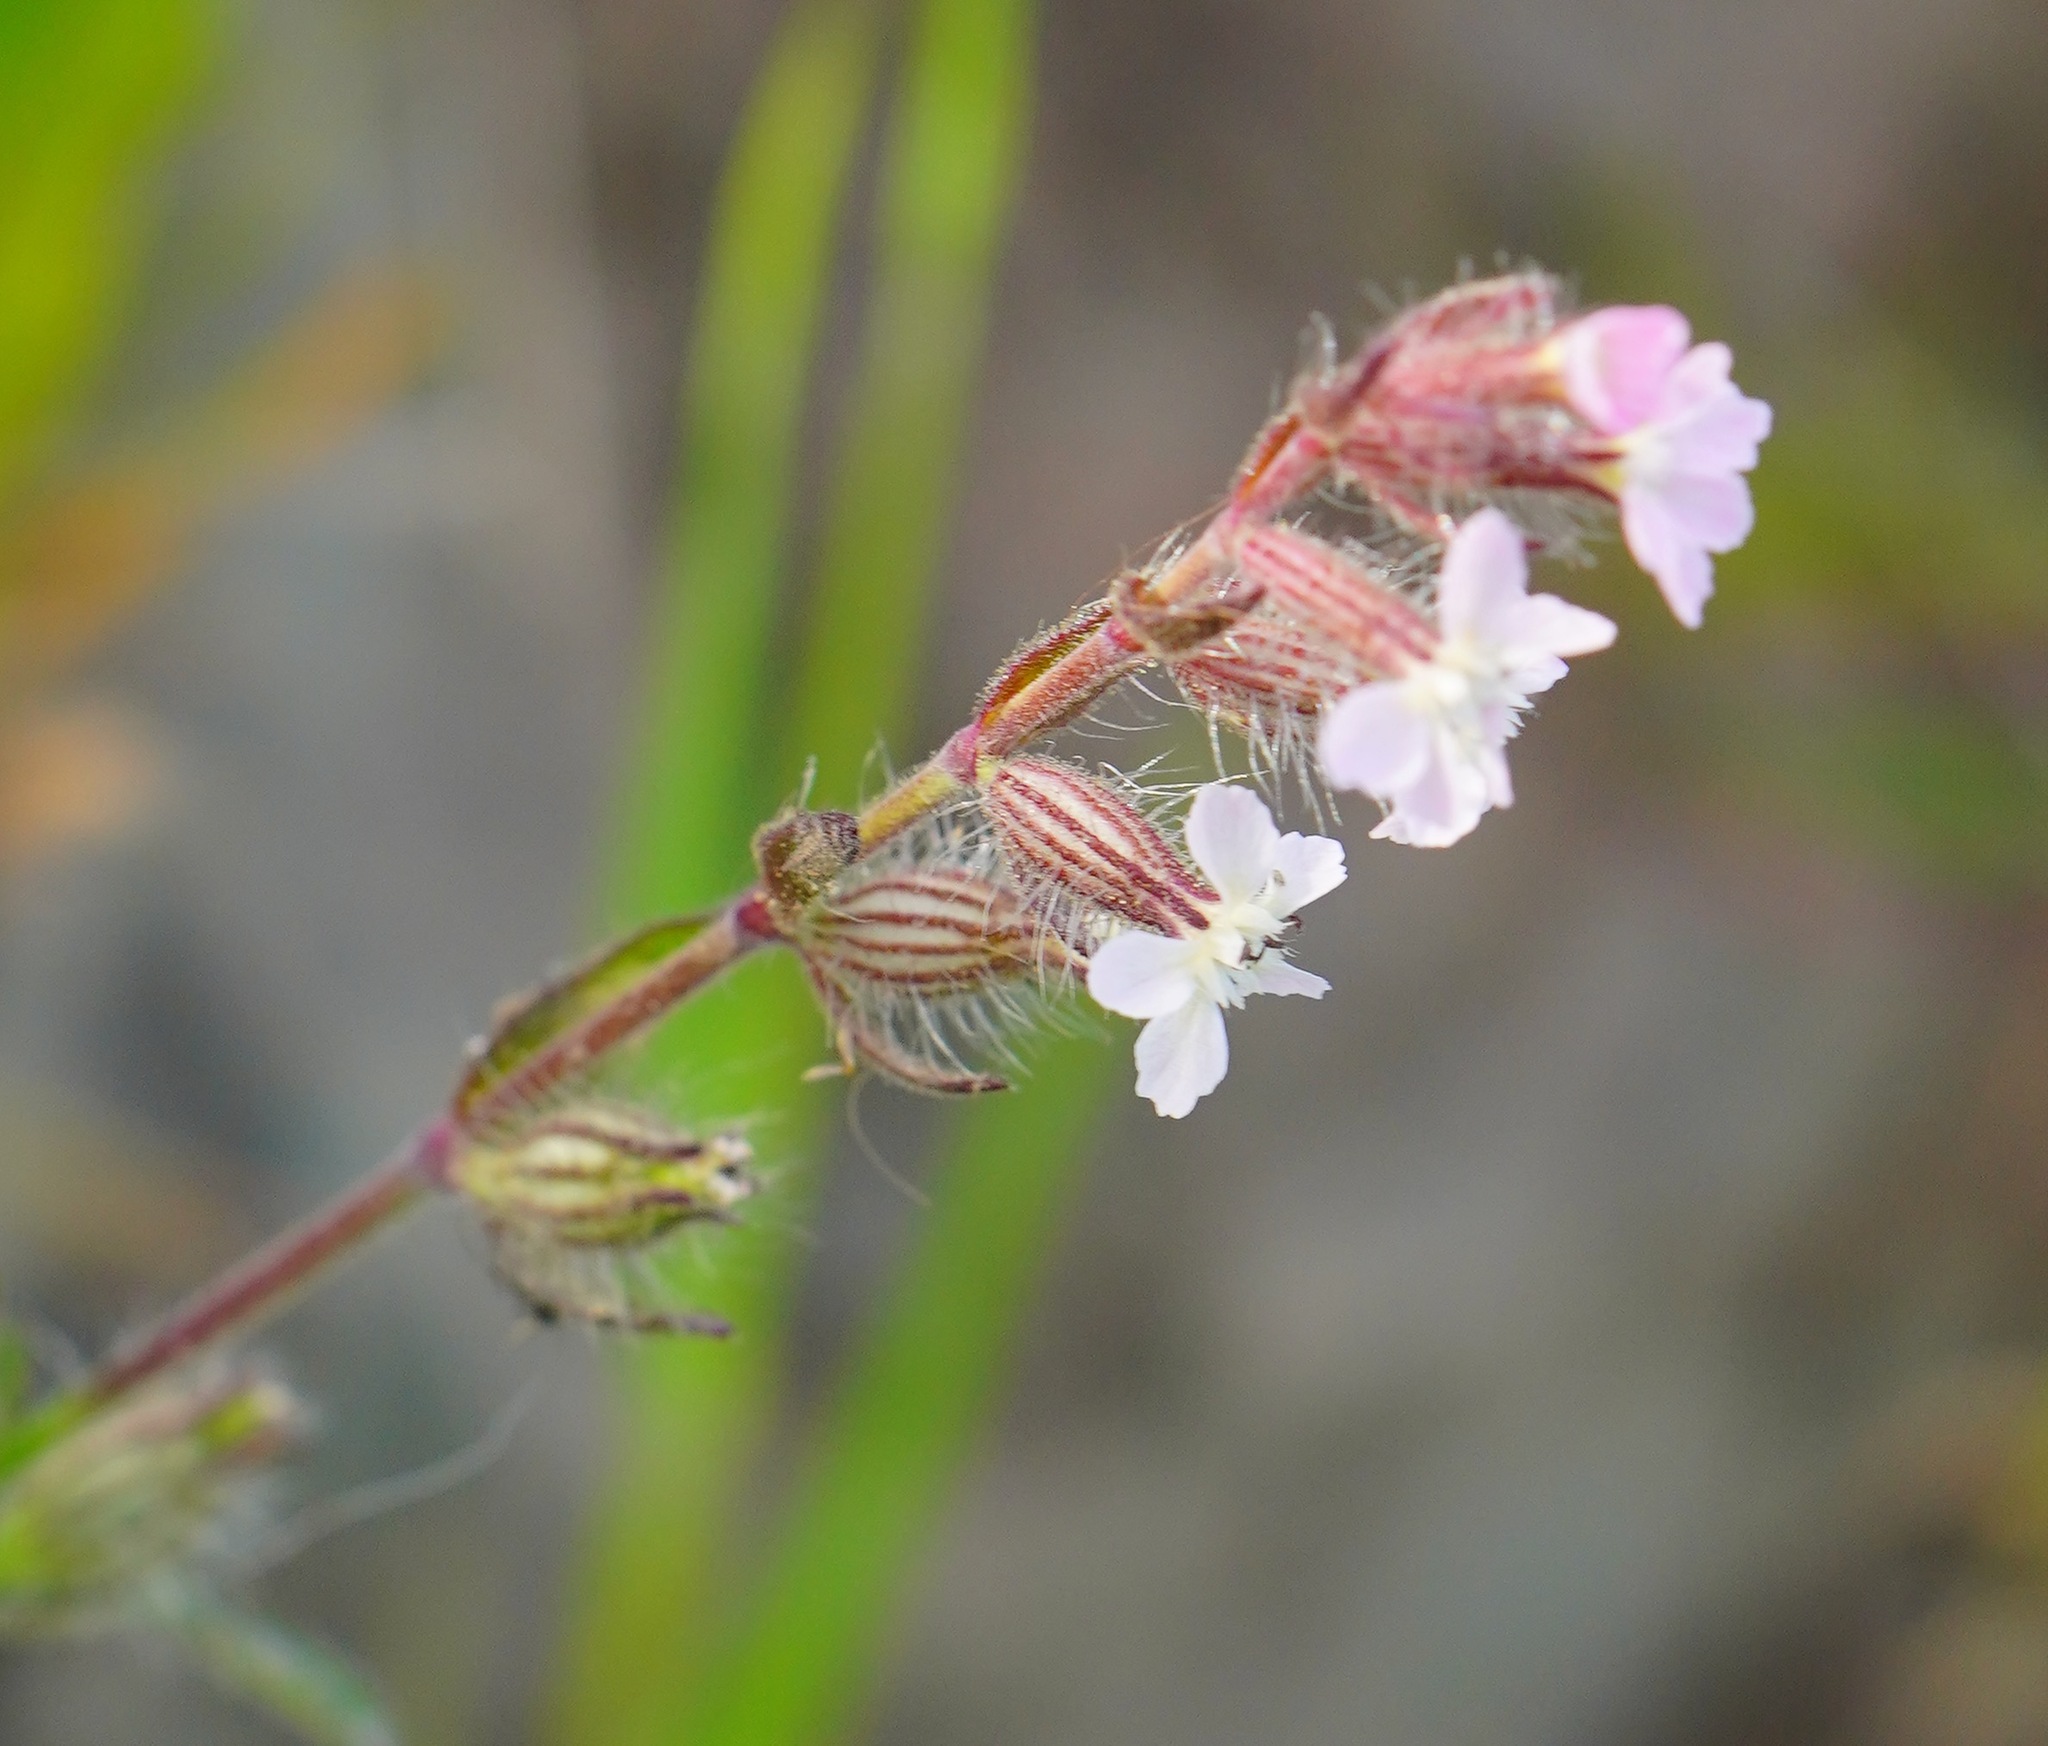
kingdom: Plantae
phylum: Tracheophyta
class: Magnoliopsida
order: Caryophyllales
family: Caryophyllaceae
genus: Silene
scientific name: Silene gallica
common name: Small-flowered catchfly
